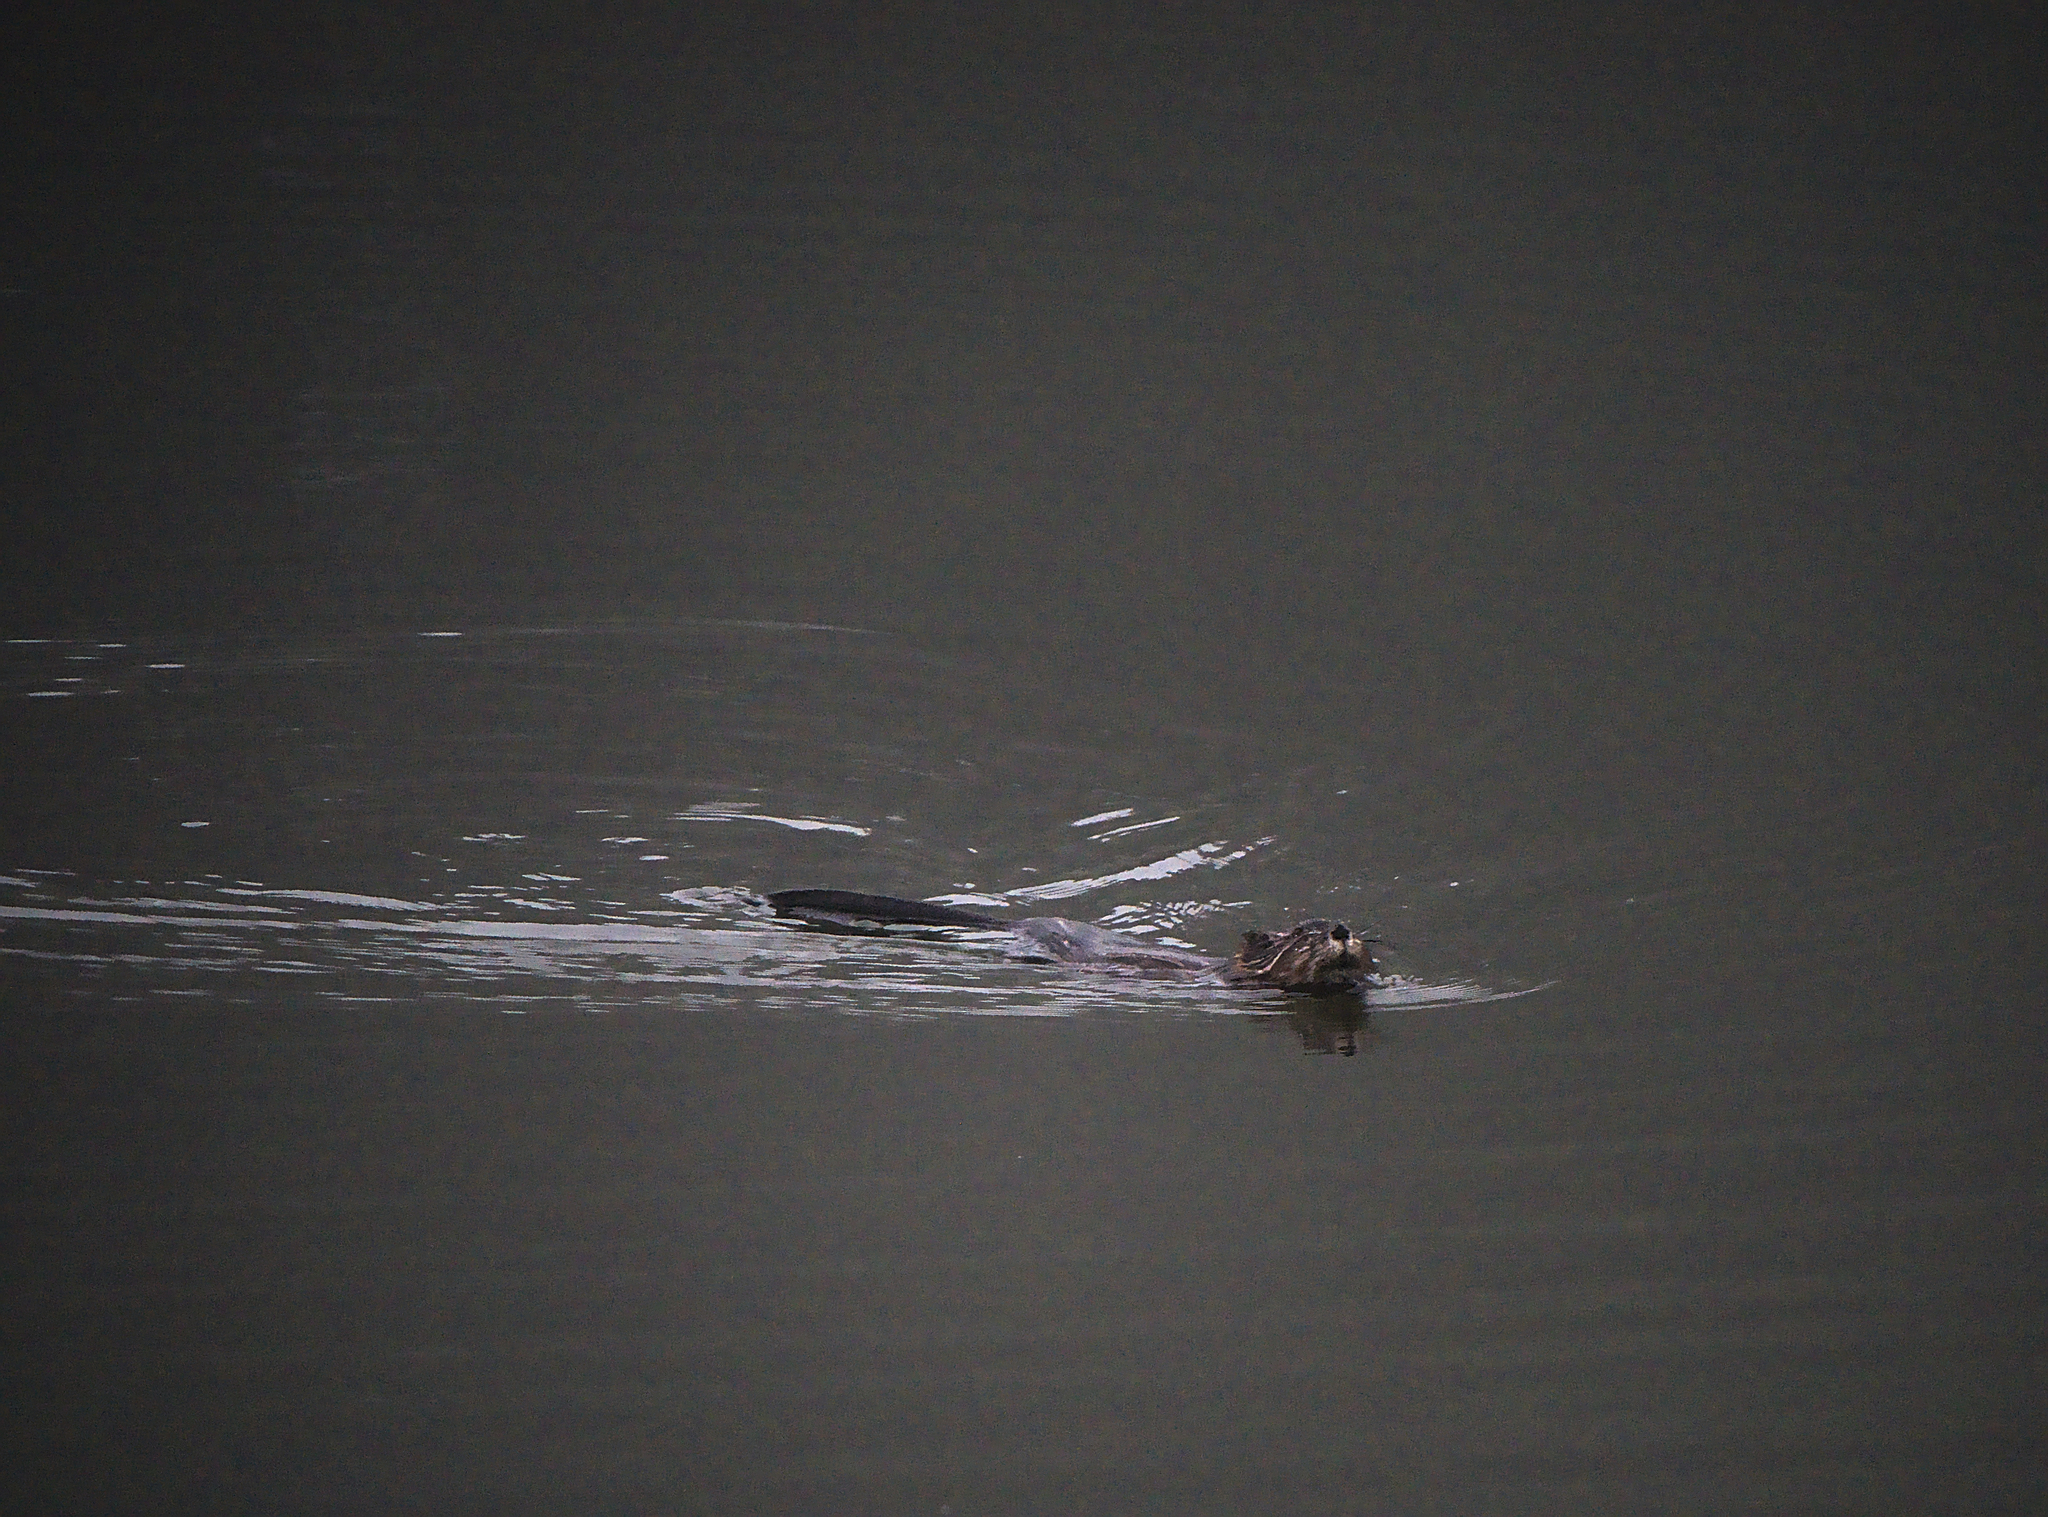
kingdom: Animalia
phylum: Chordata
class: Mammalia
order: Rodentia
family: Cricetidae
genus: Ondatra
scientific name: Ondatra zibethicus
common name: Muskrat
